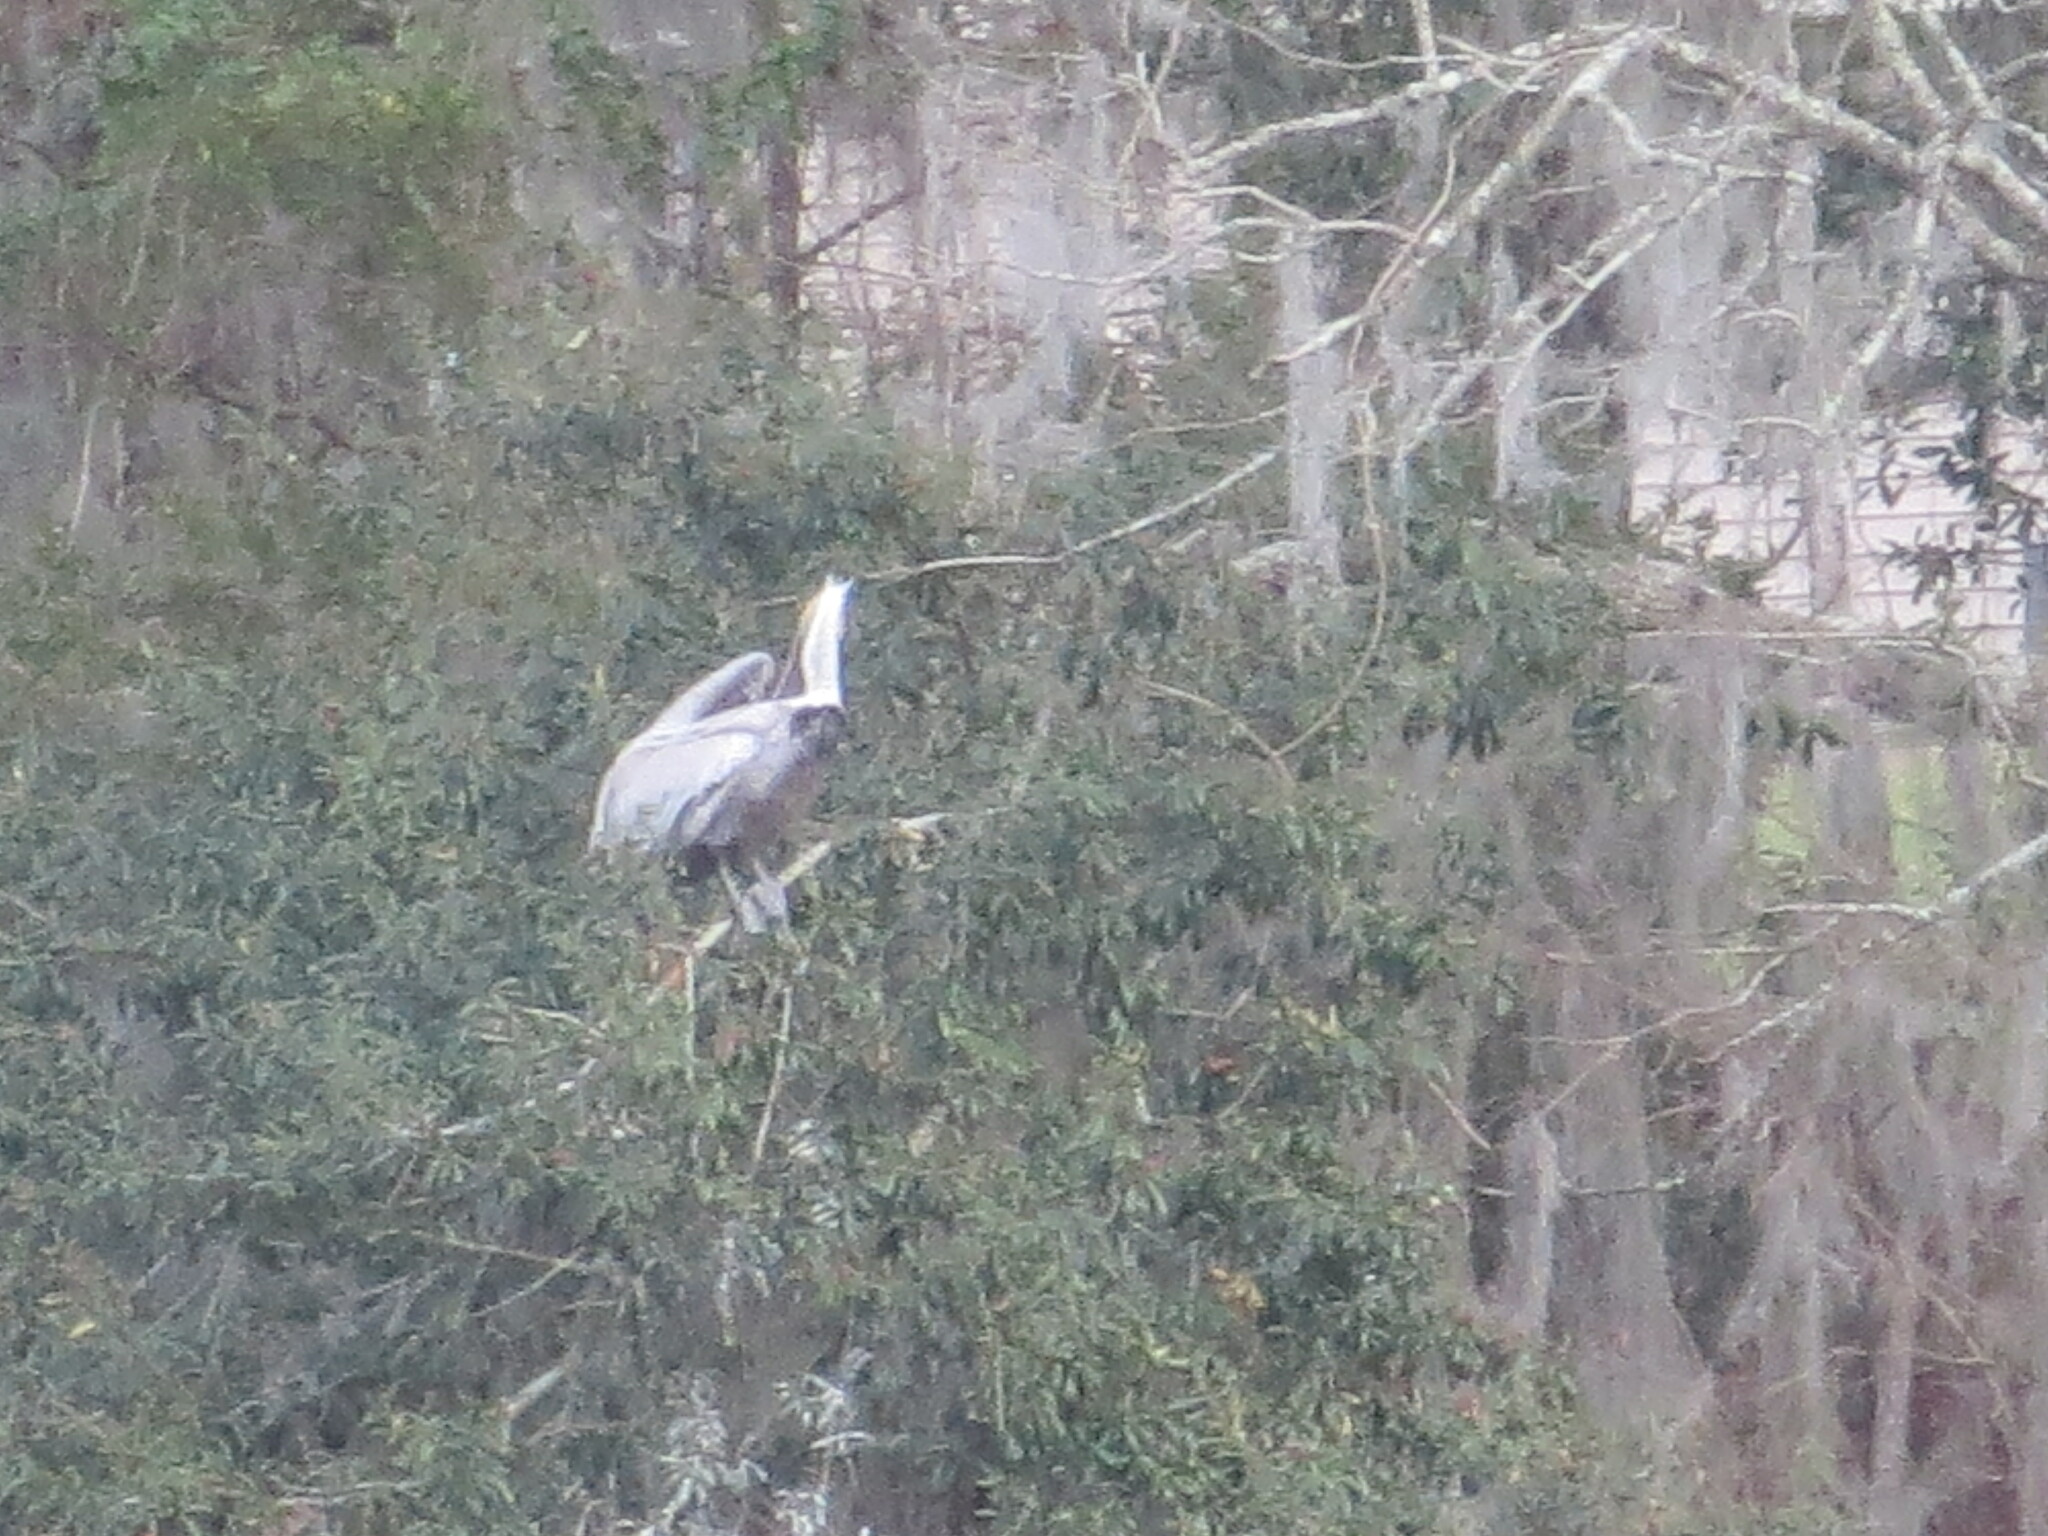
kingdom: Animalia
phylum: Chordata
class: Aves
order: Pelecaniformes
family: Pelecanidae
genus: Pelecanus
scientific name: Pelecanus occidentalis
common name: Brown pelican
